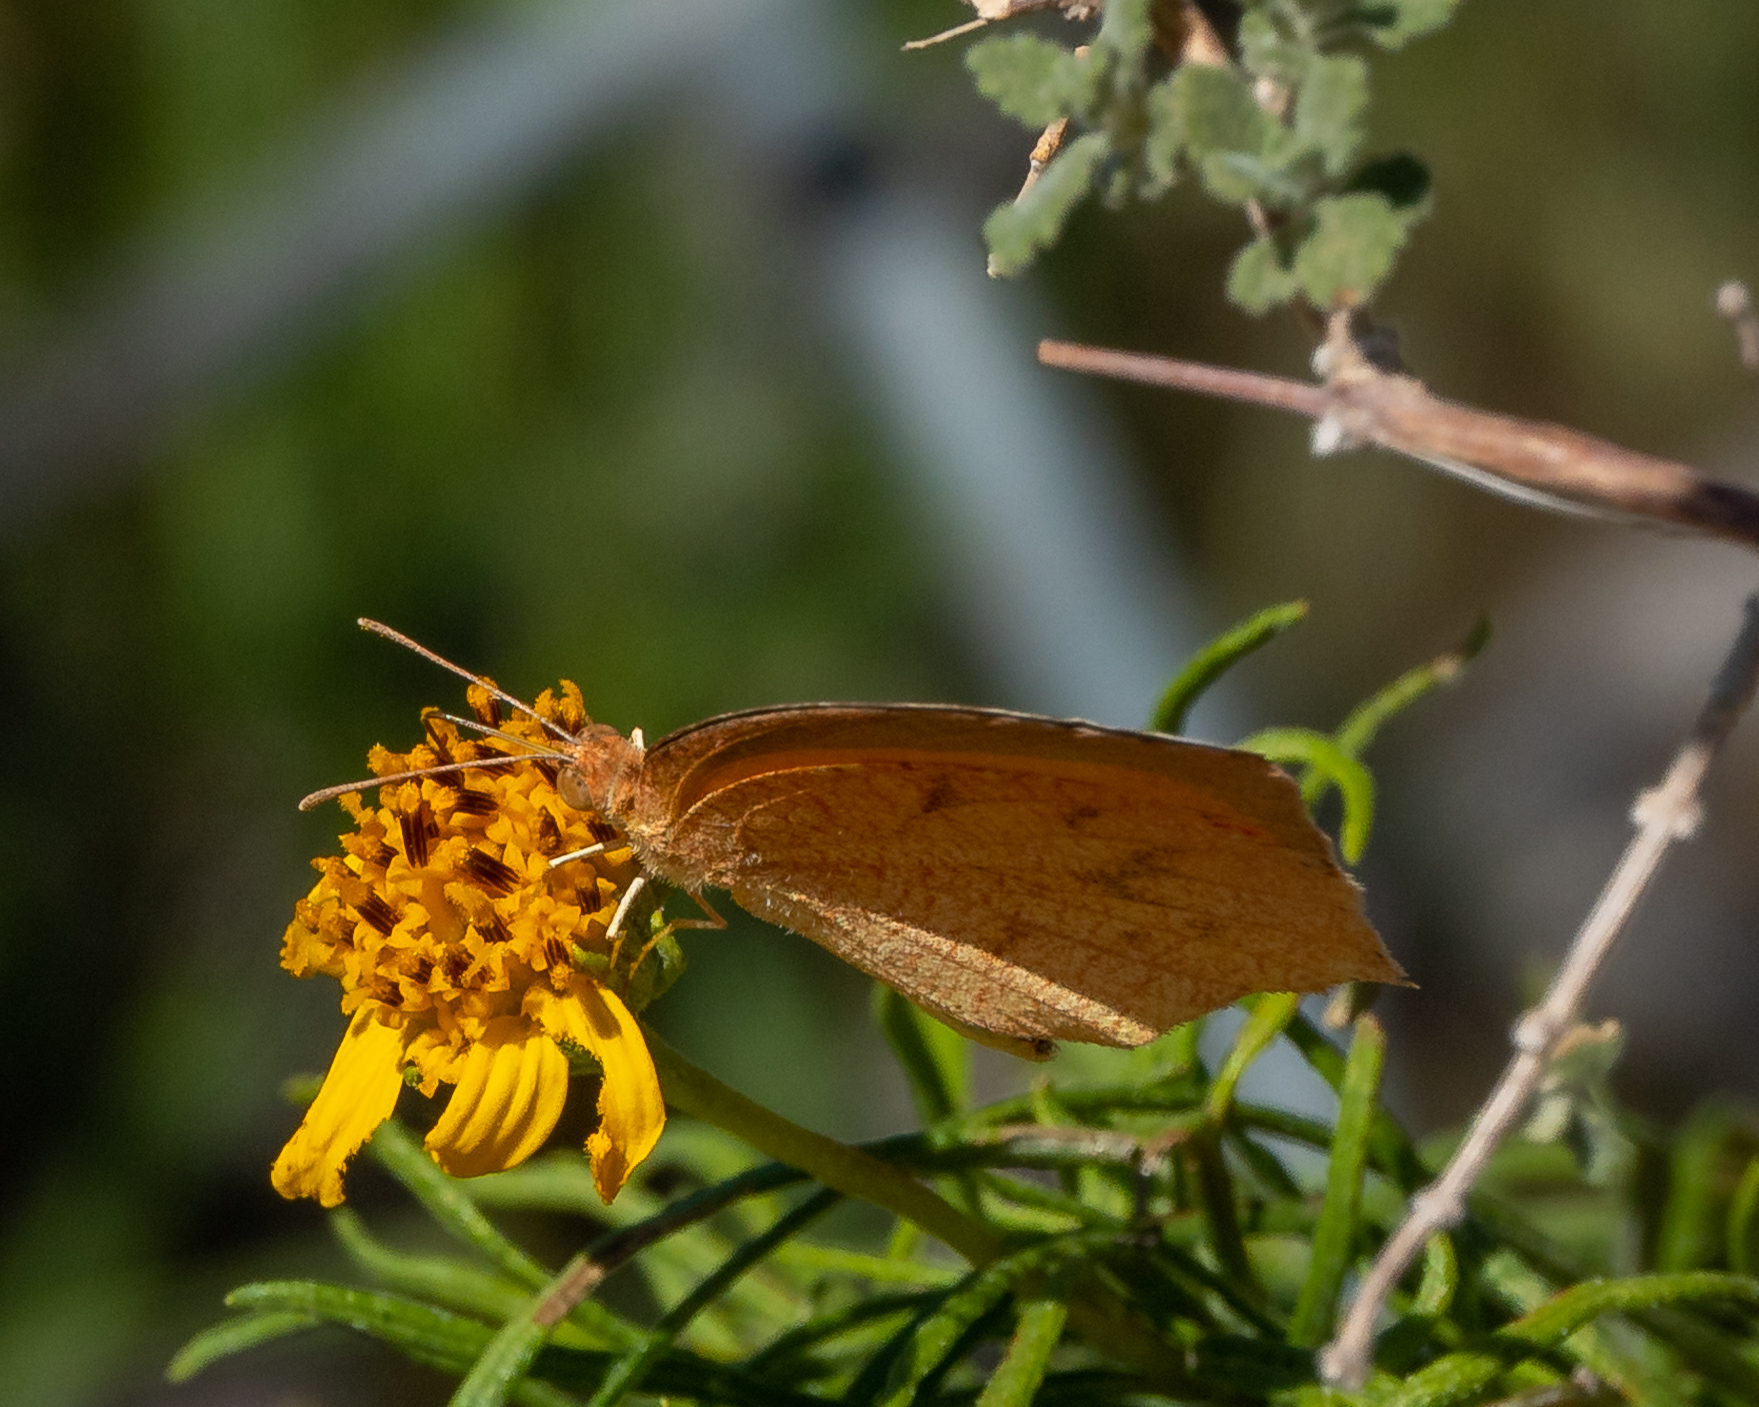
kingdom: Animalia
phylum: Arthropoda
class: Insecta
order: Lepidoptera
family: Pieridae
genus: Pyrisitia
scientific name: Pyrisitia proterpia
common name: Tailed orange
